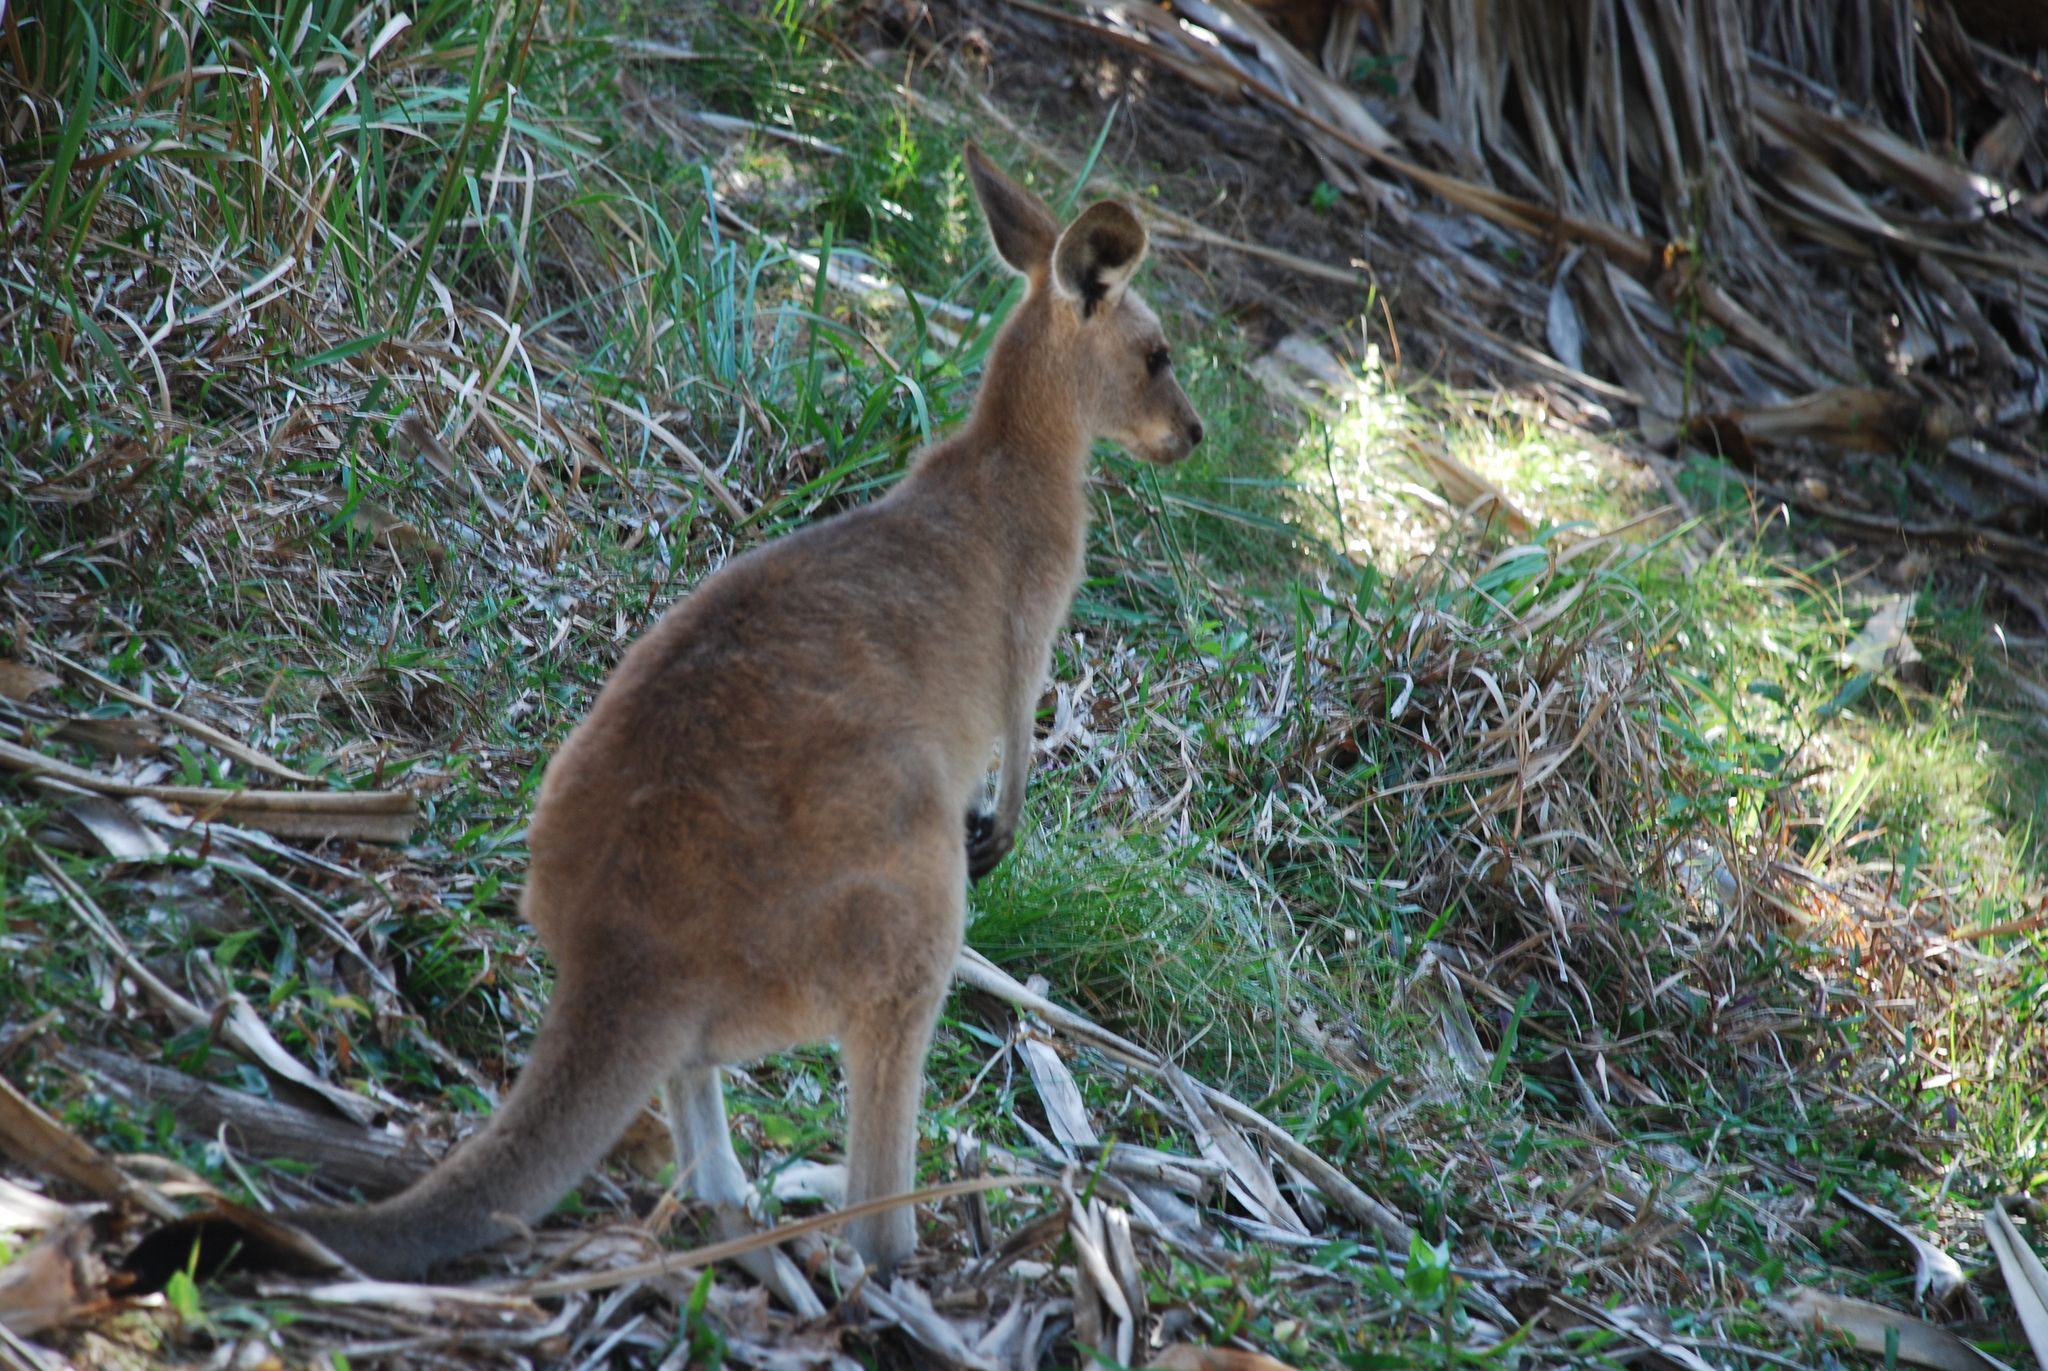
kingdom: Animalia
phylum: Chordata
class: Mammalia
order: Diprotodontia
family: Macropodidae
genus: Macropus
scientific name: Macropus giganteus
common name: Eastern grey kangaroo
